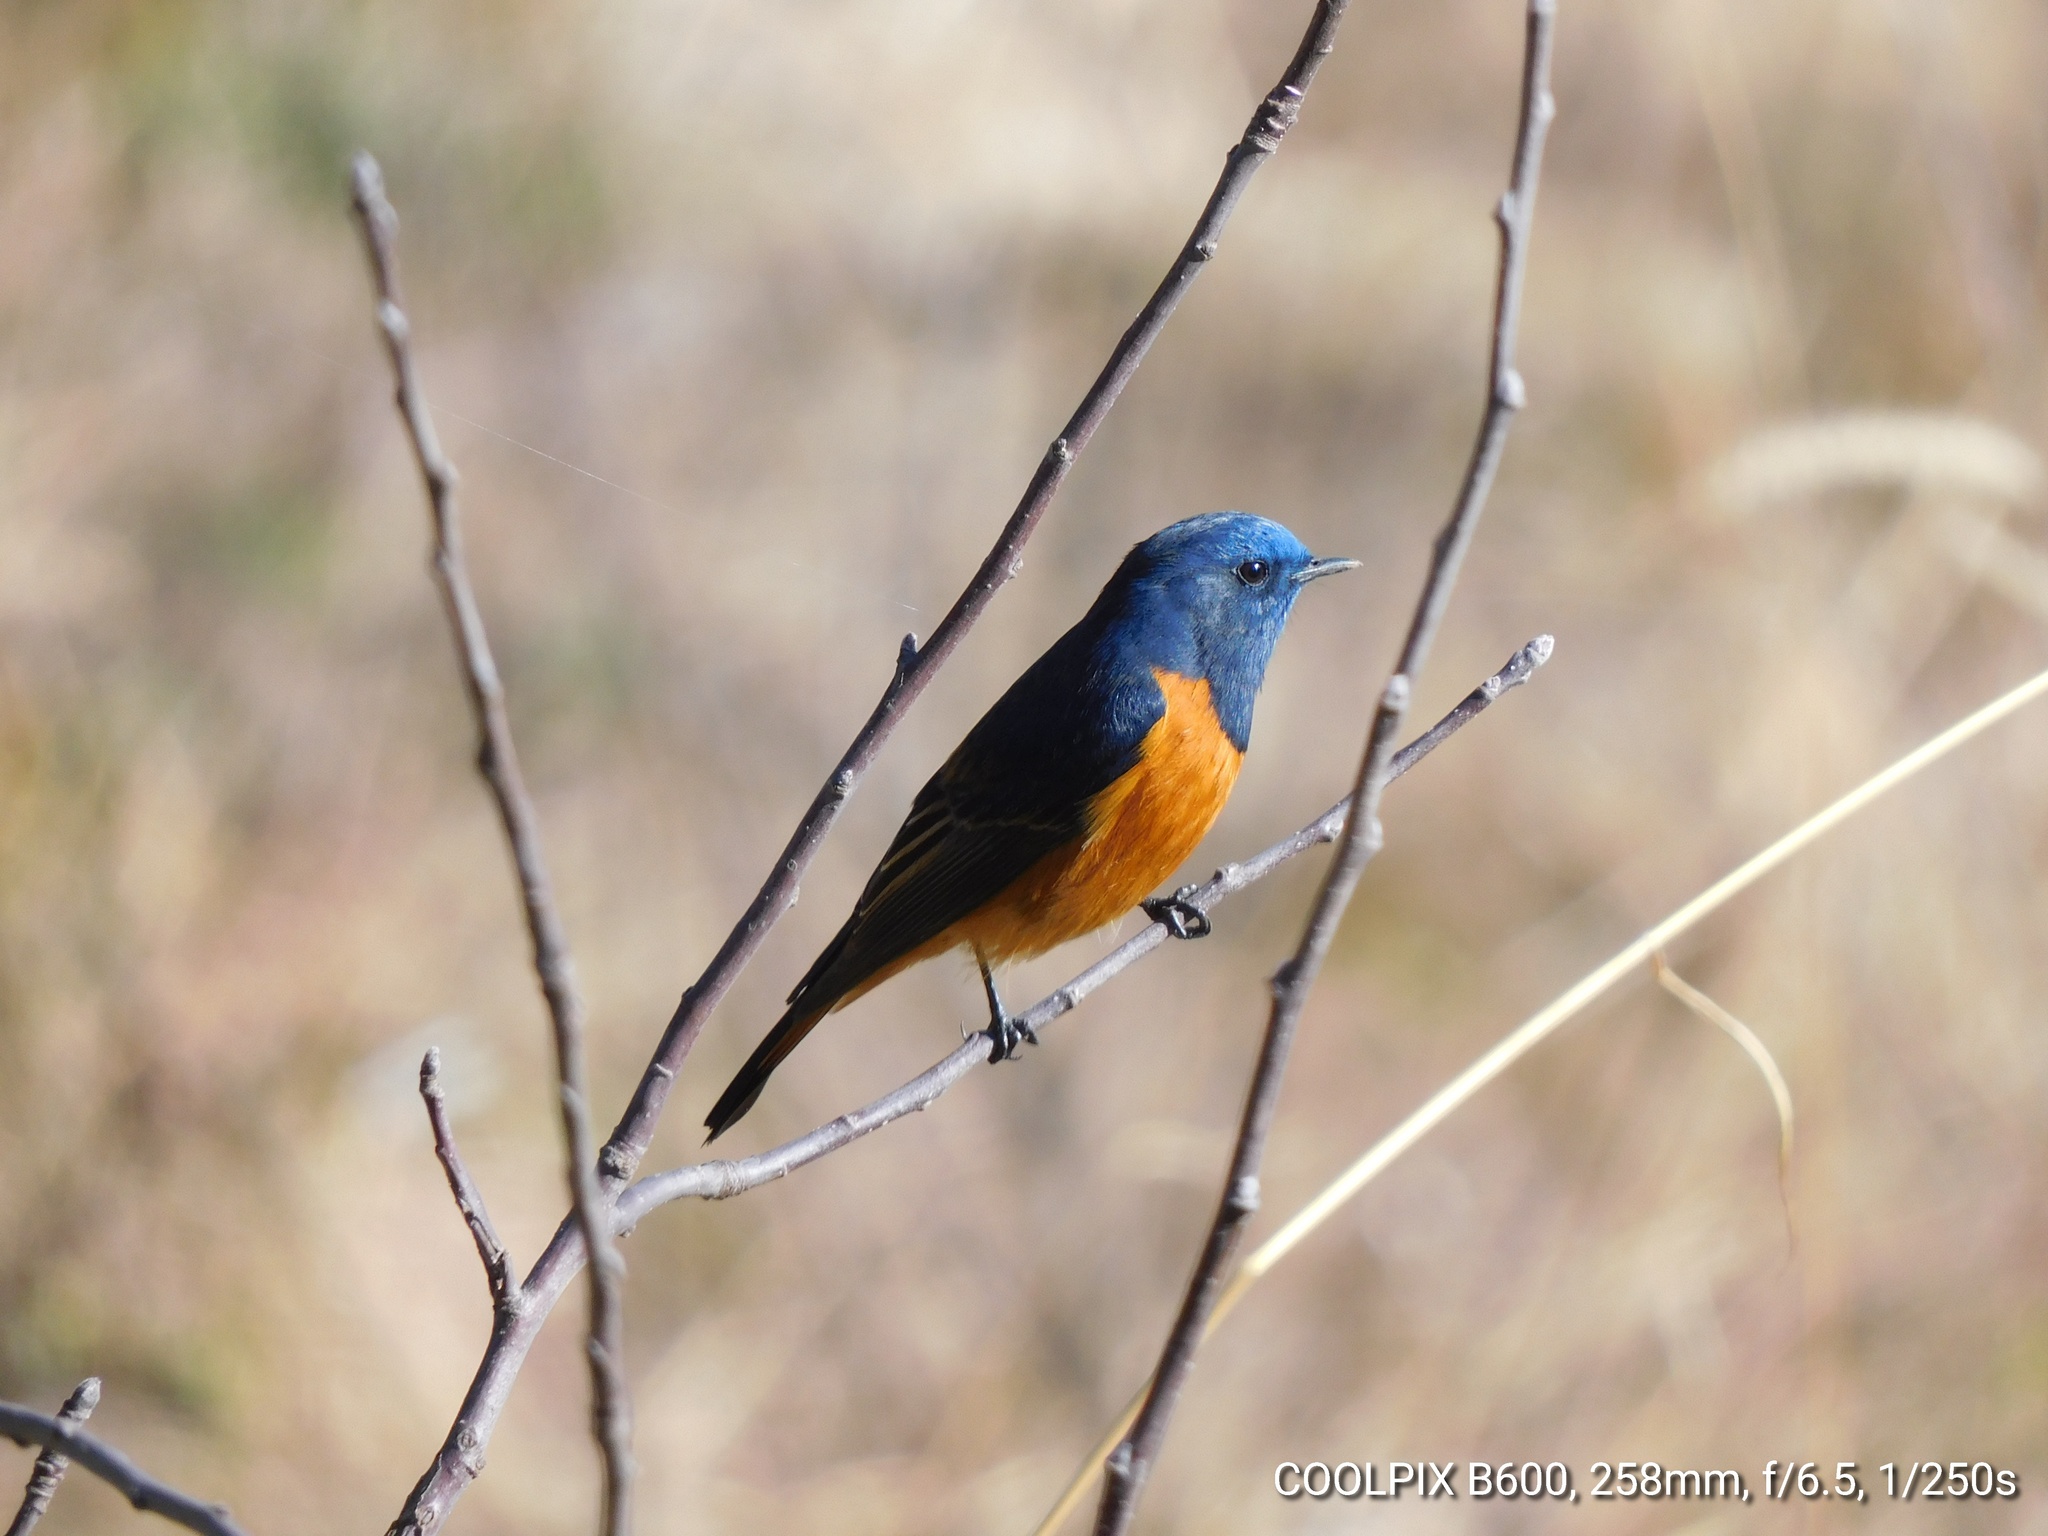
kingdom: Animalia
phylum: Chordata
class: Aves
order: Passeriformes
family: Muscicapidae
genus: Phoenicurus
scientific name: Phoenicurus frontalis
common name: Blue-fronted redstart
